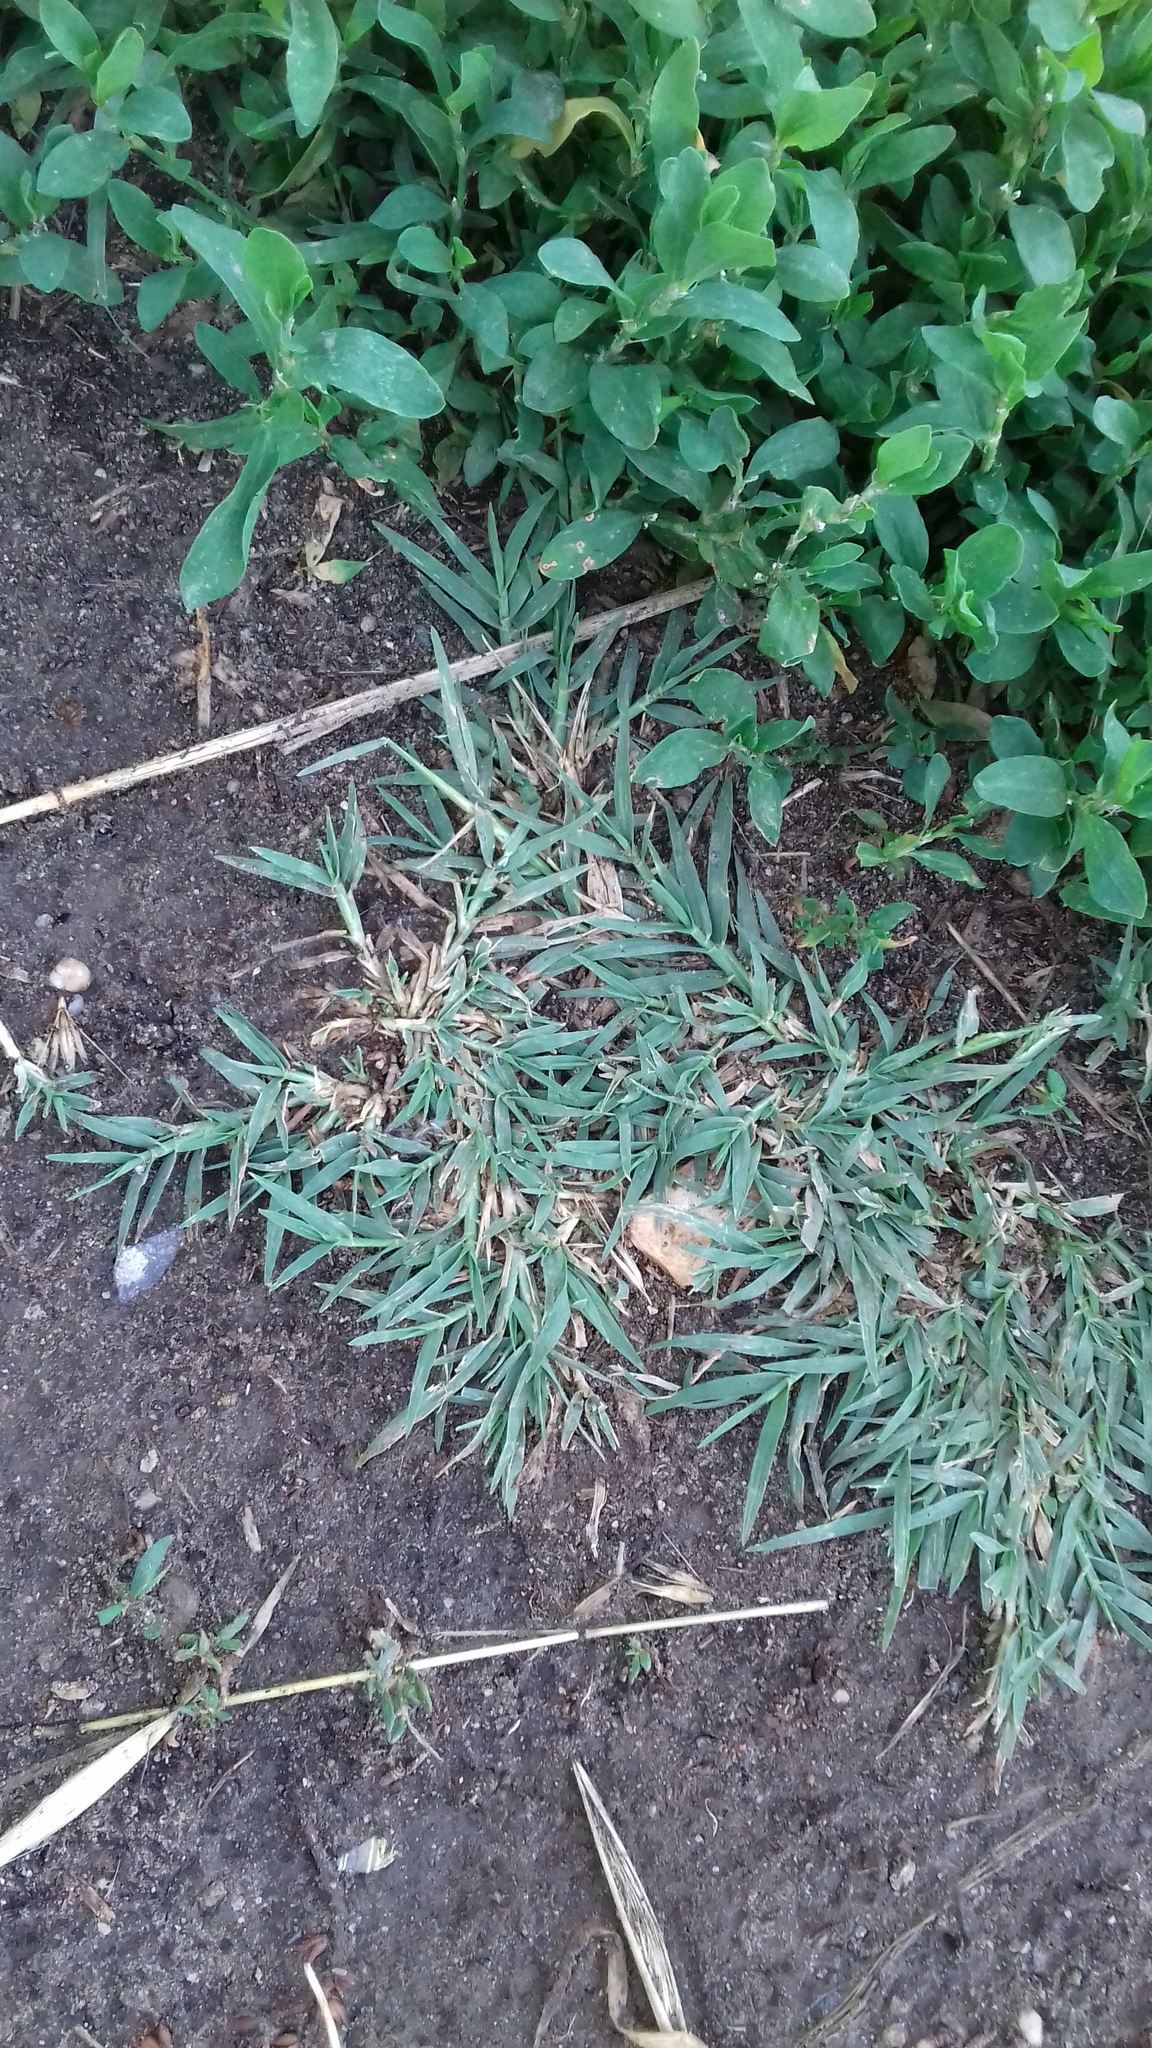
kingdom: Plantae
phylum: Tracheophyta
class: Liliopsida
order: Poales
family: Poaceae
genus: Cynodon
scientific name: Cynodon dactylon
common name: Bermuda grass
